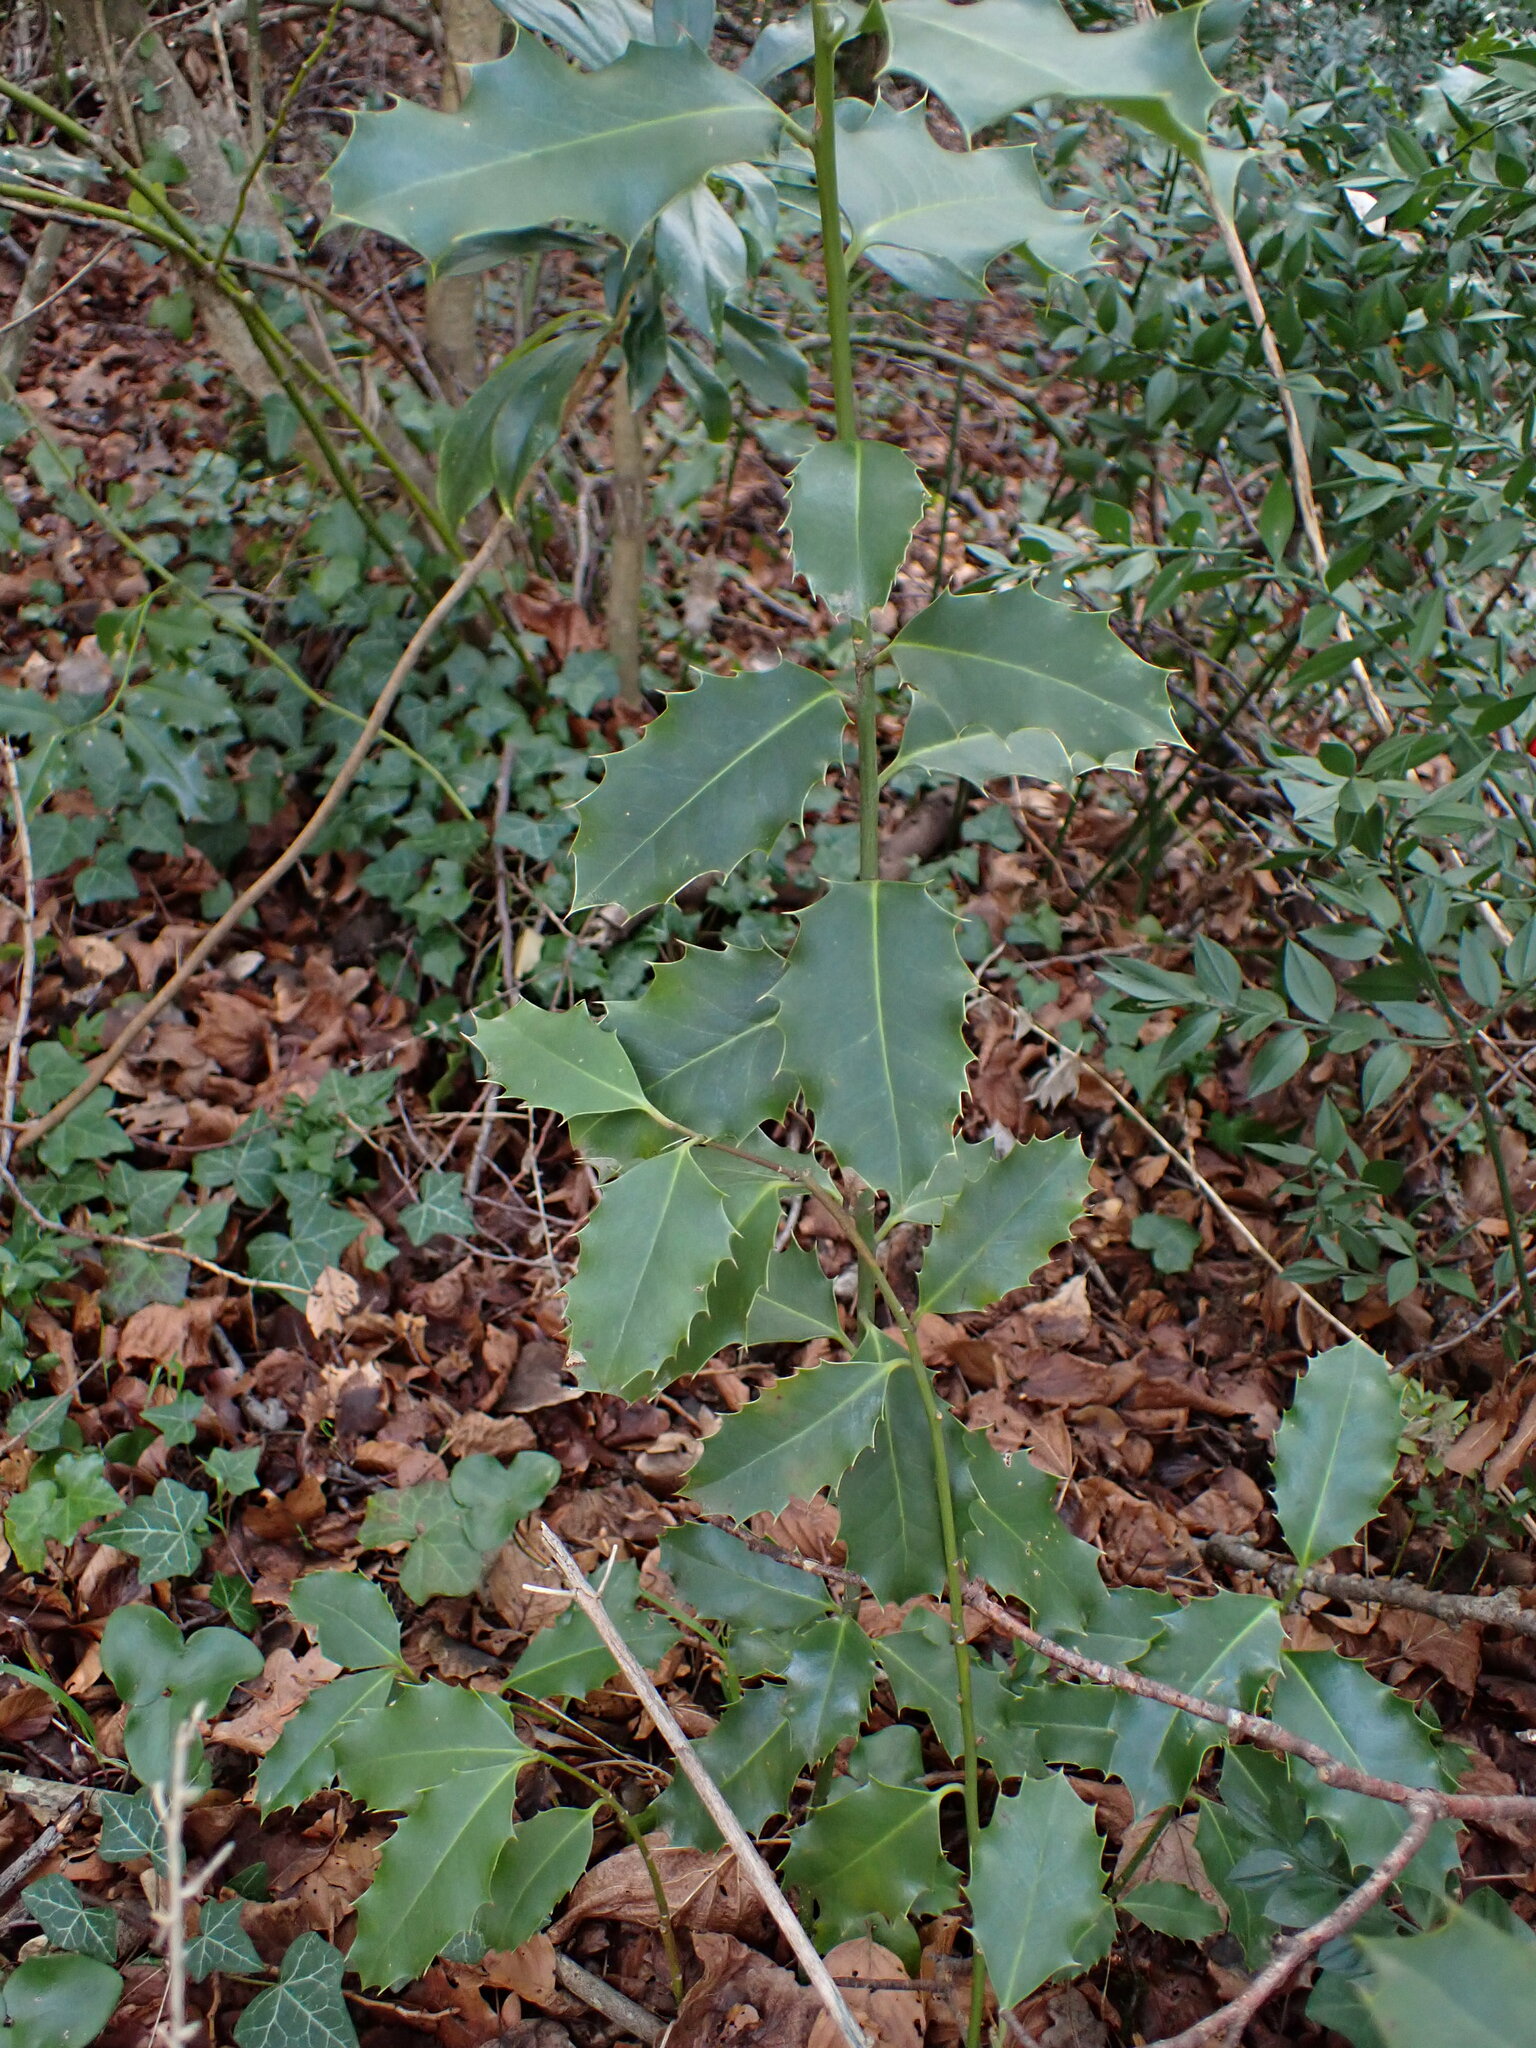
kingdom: Plantae
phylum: Tracheophyta
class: Magnoliopsida
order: Aquifoliales
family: Aquifoliaceae
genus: Ilex
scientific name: Ilex aquifolium
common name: English holly
